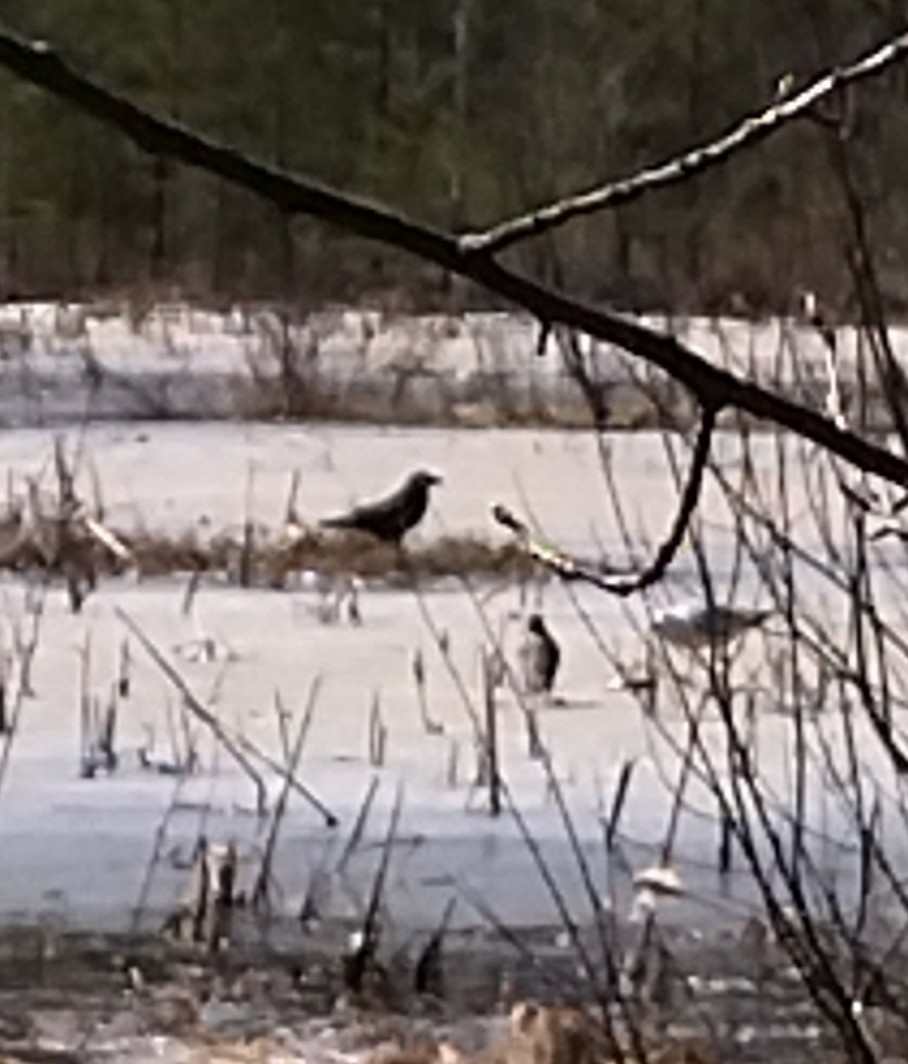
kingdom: Animalia
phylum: Chordata
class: Aves
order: Passeriformes
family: Corvidae
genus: Corvus
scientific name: Corvus corax
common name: Common raven
